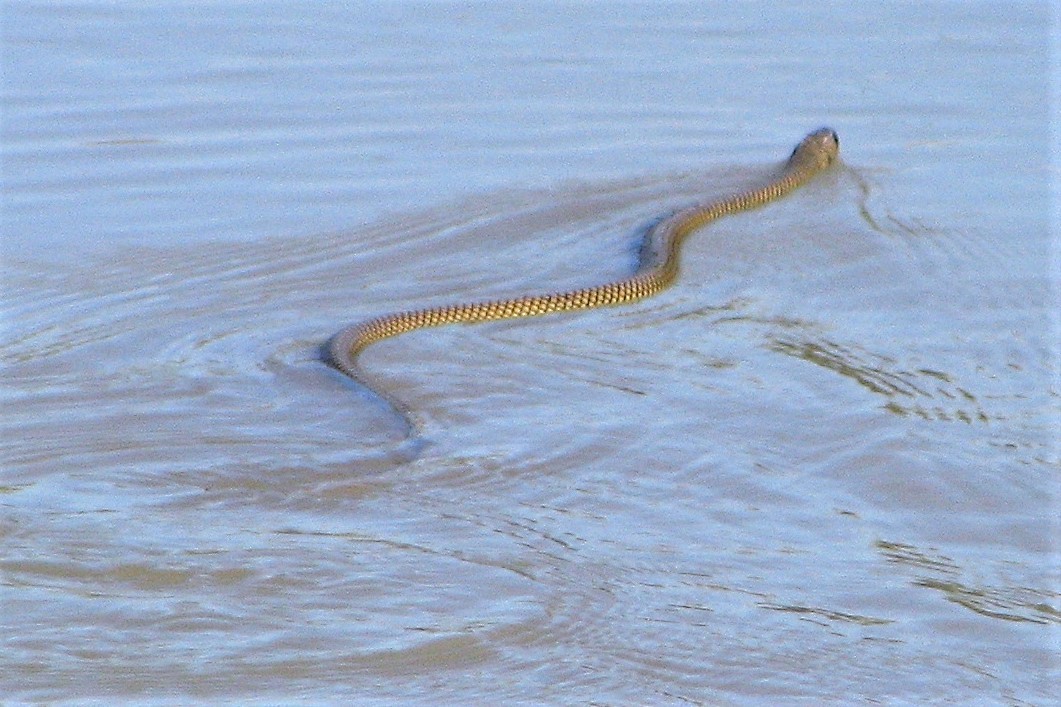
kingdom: Animalia
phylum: Chordata
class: Squamata
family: Colubridae
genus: Erythrolamprus
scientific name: Erythrolamprus semiaureus
